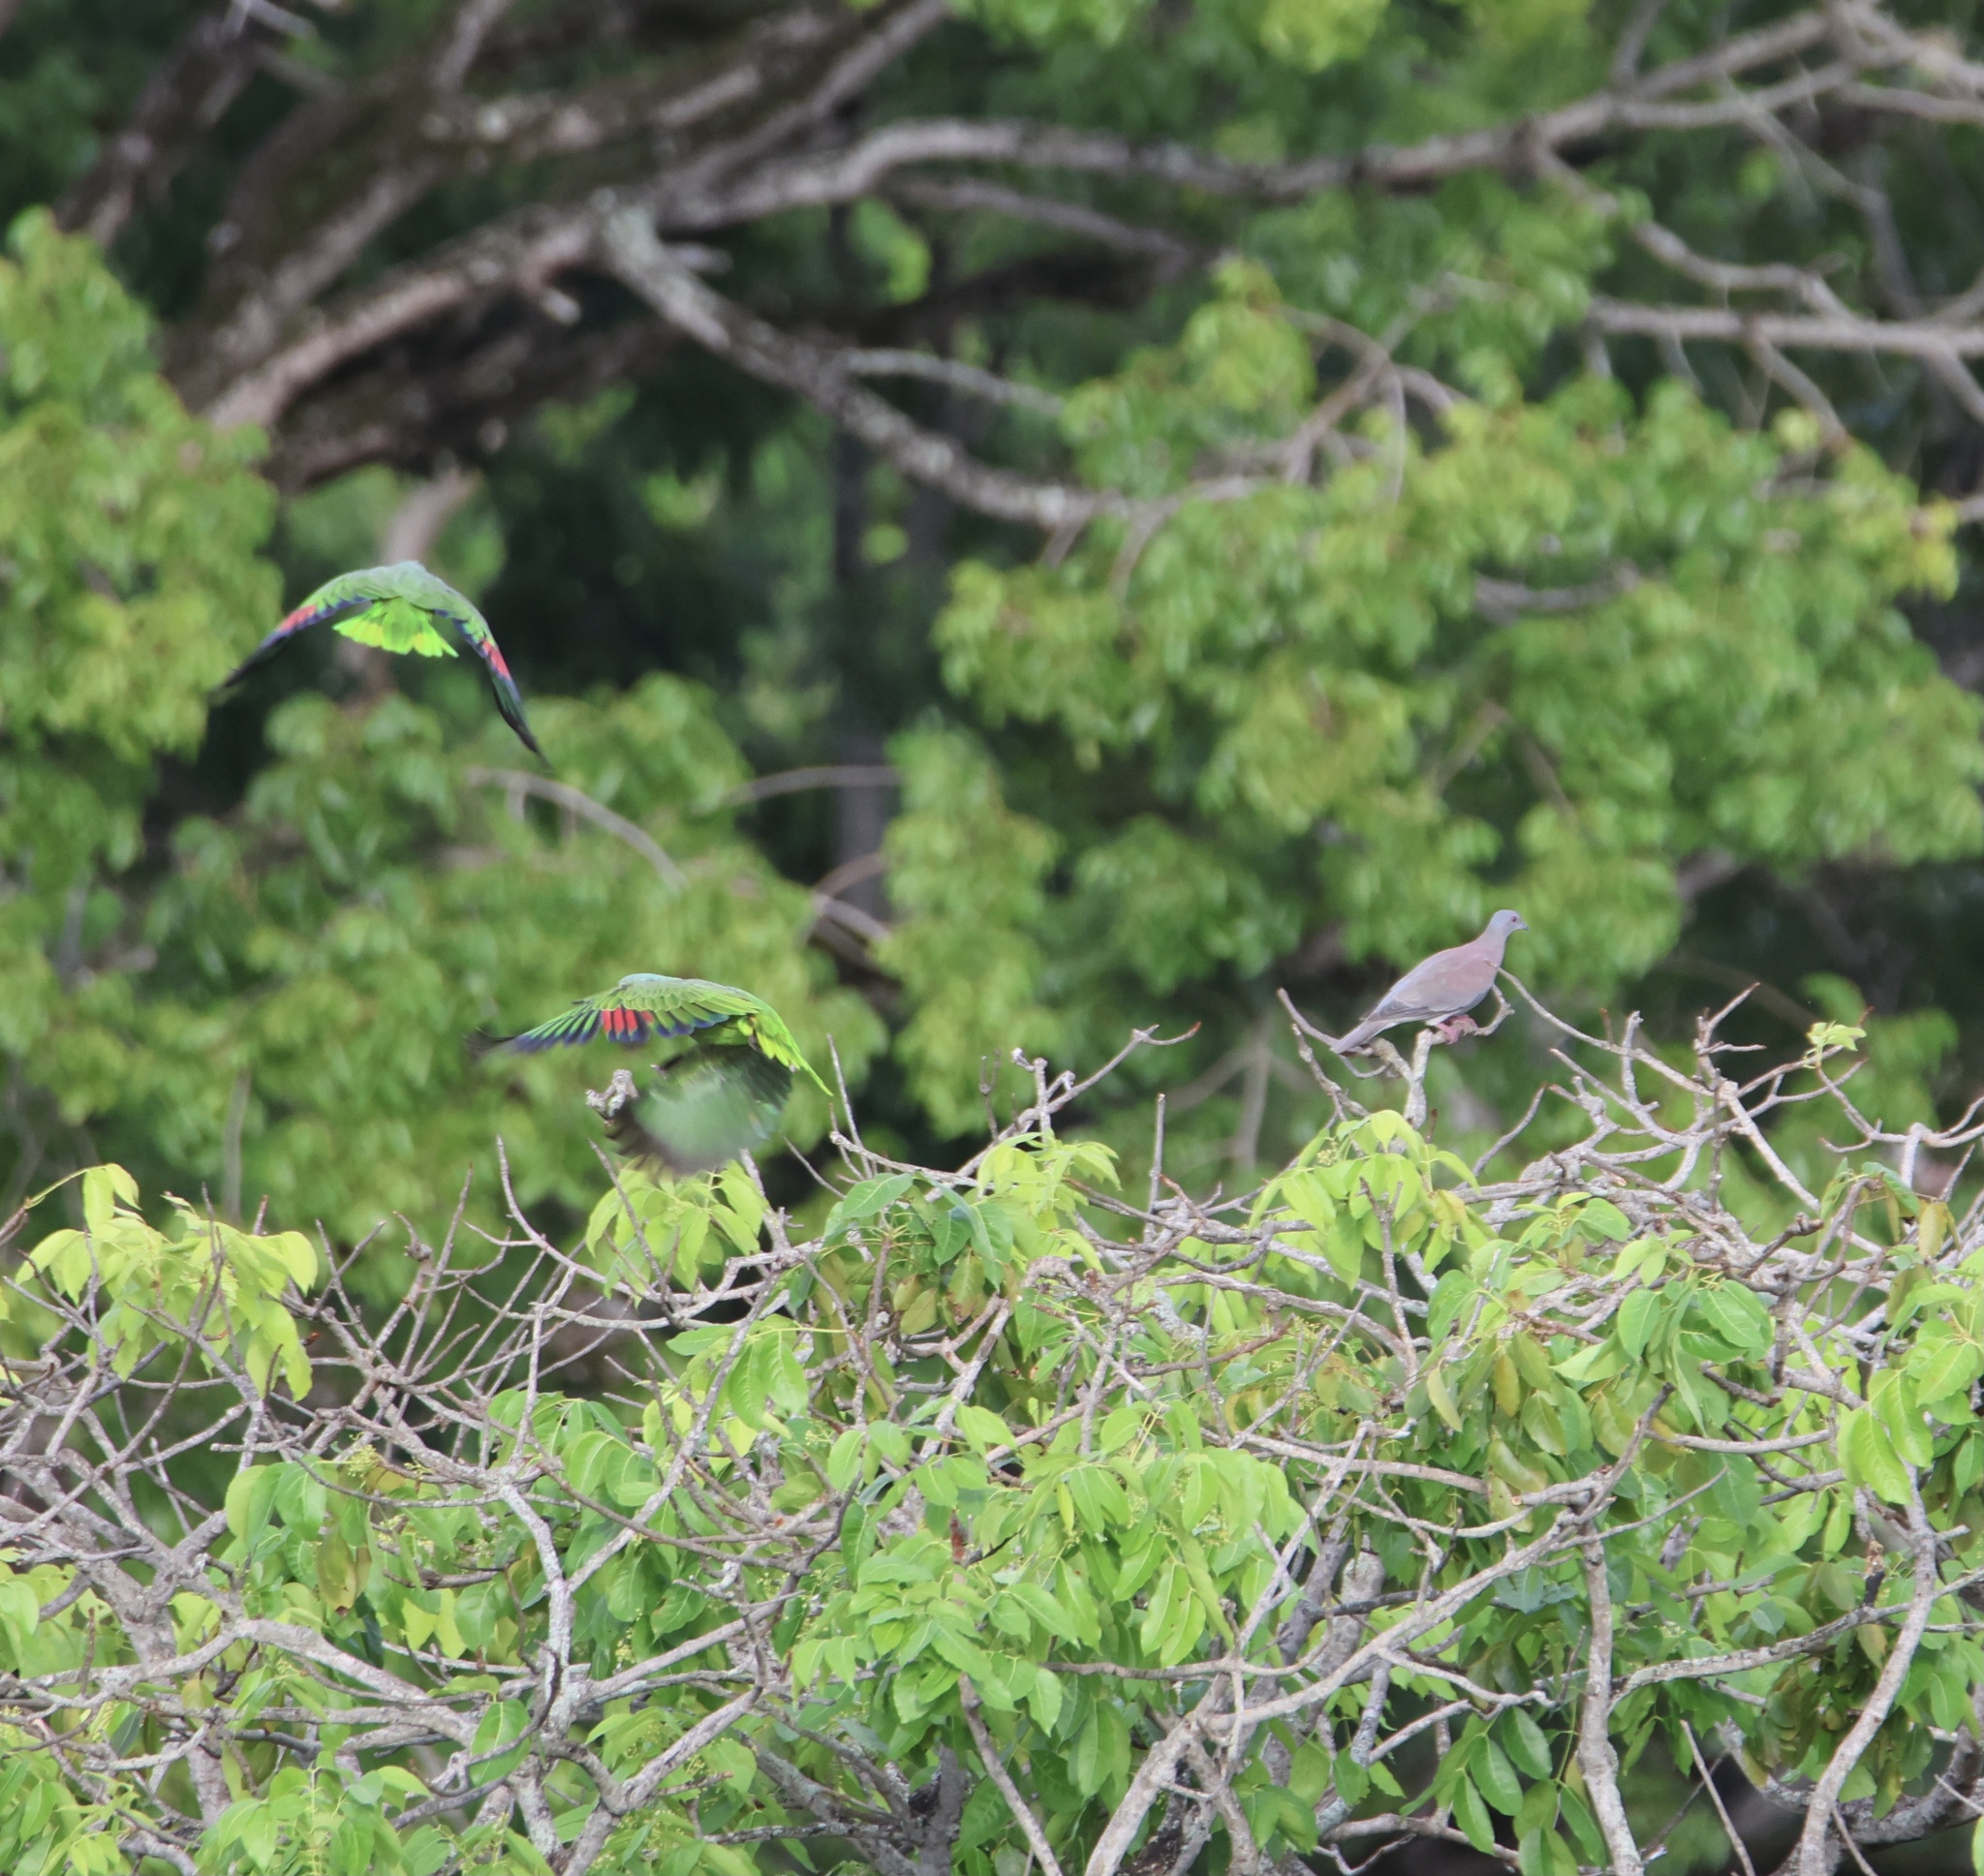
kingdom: Animalia
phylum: Chordata
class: Aves
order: Columbiformes
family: Columbidae
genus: Patagioenas
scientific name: Patagioenas cayennensis
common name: Pale-vented pigeon
